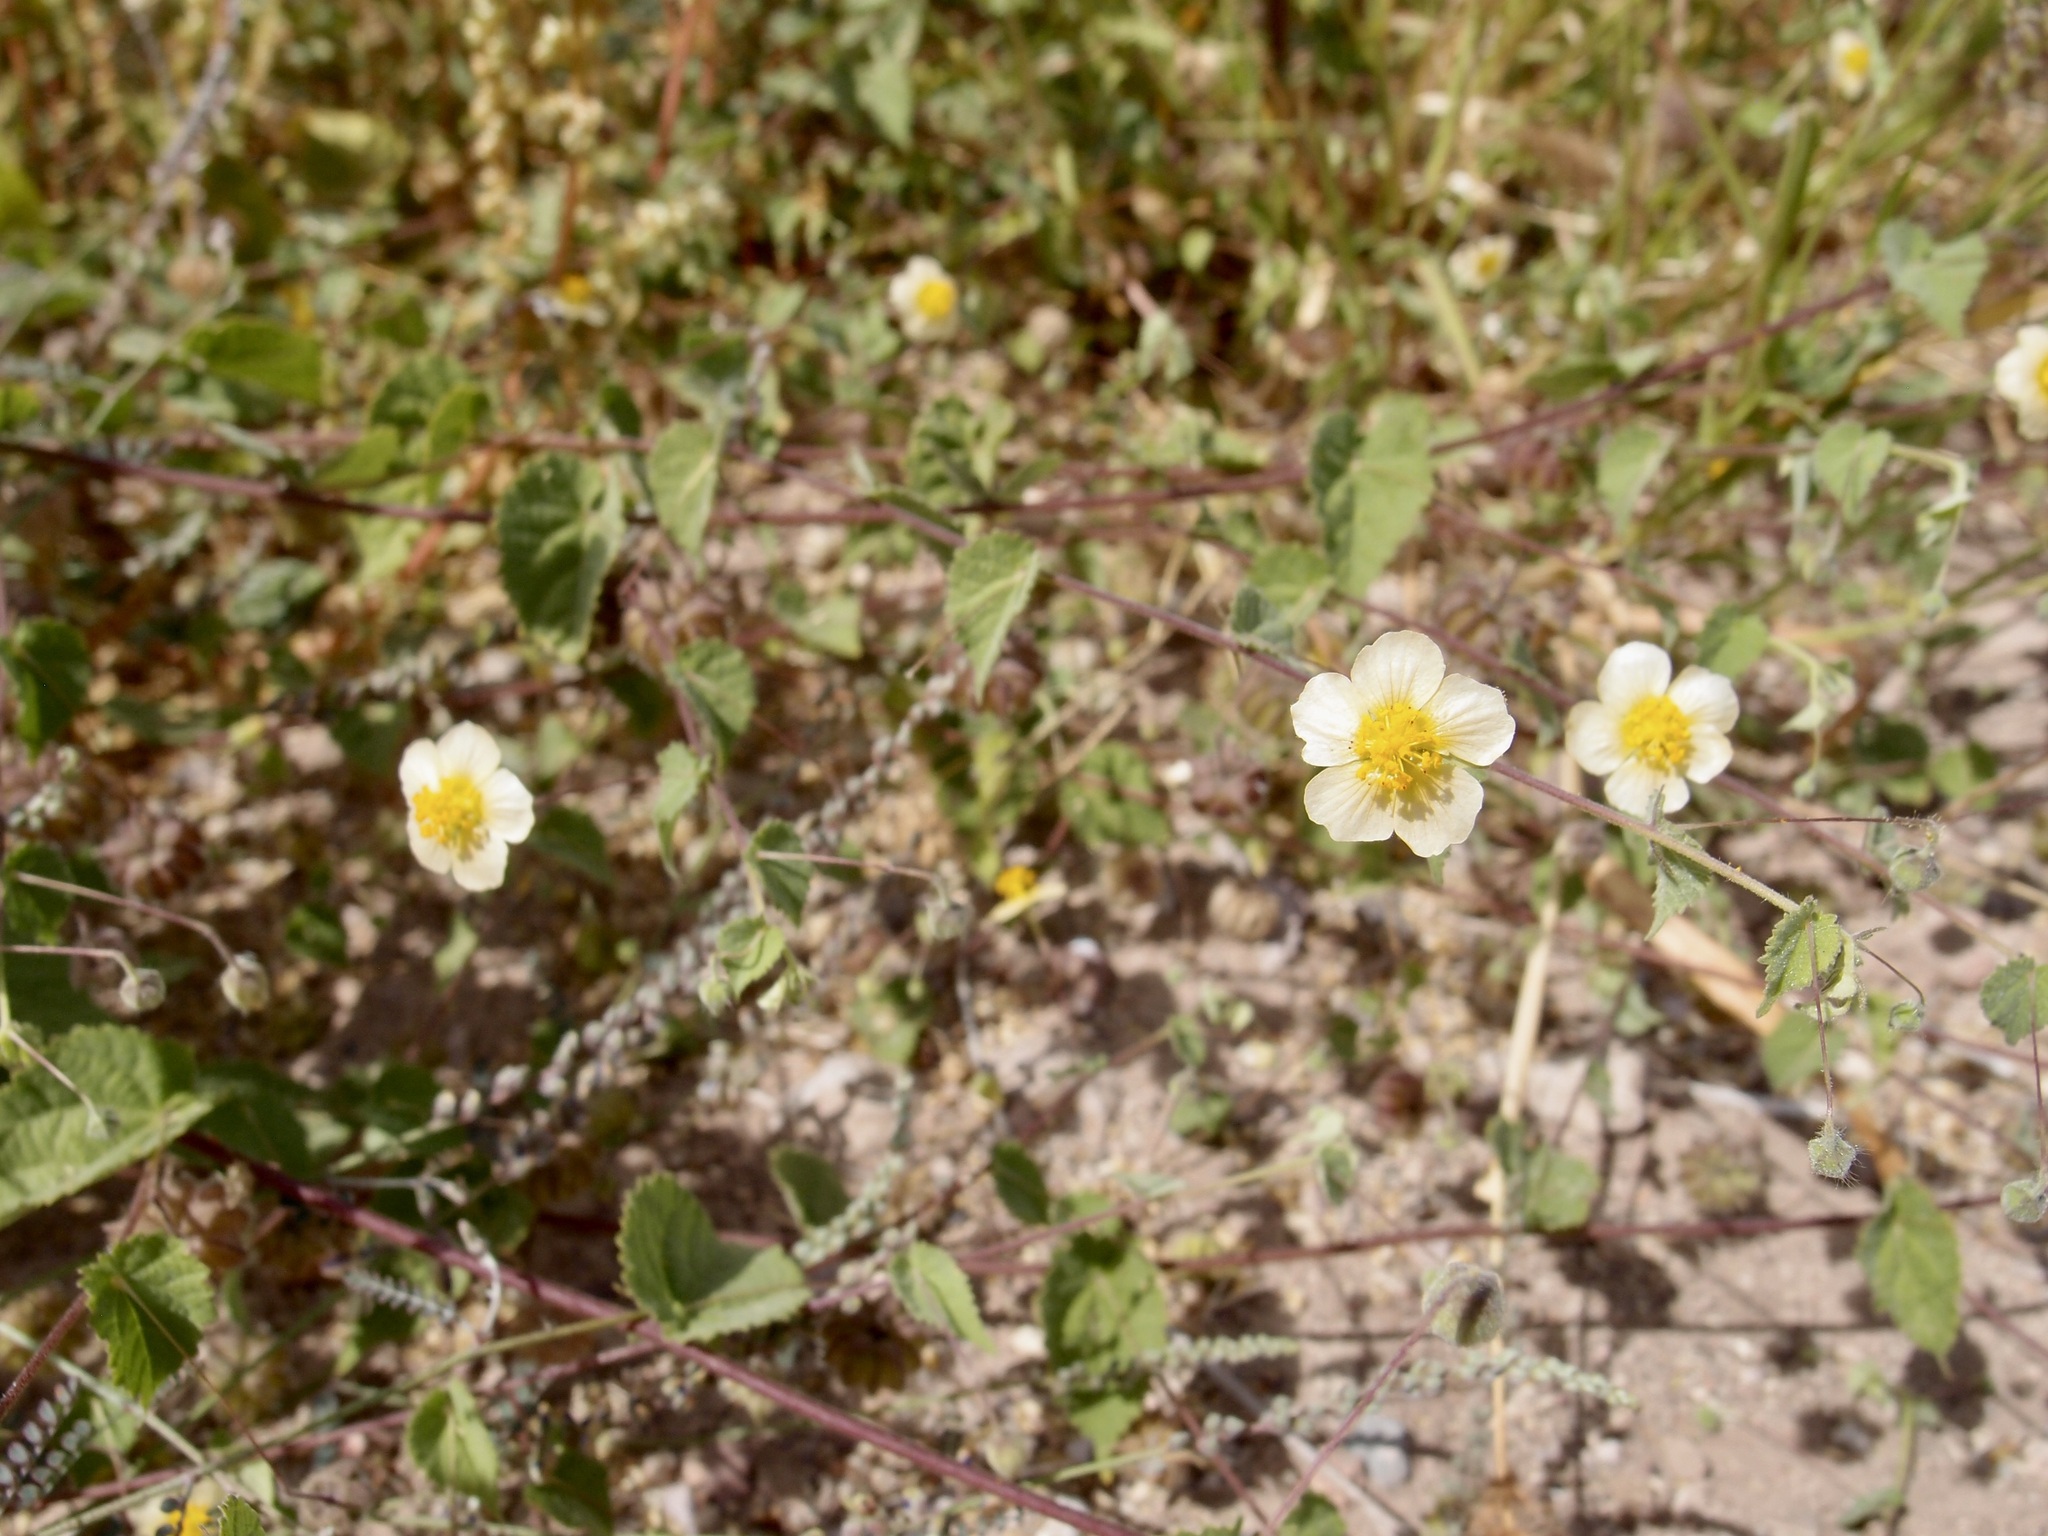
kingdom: Plantae
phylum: Tracheophyta
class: Magnoliopsida
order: Malvales
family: Malvaceae
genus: Herissantia
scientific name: Herissantia crispa
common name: Bladdermallow
